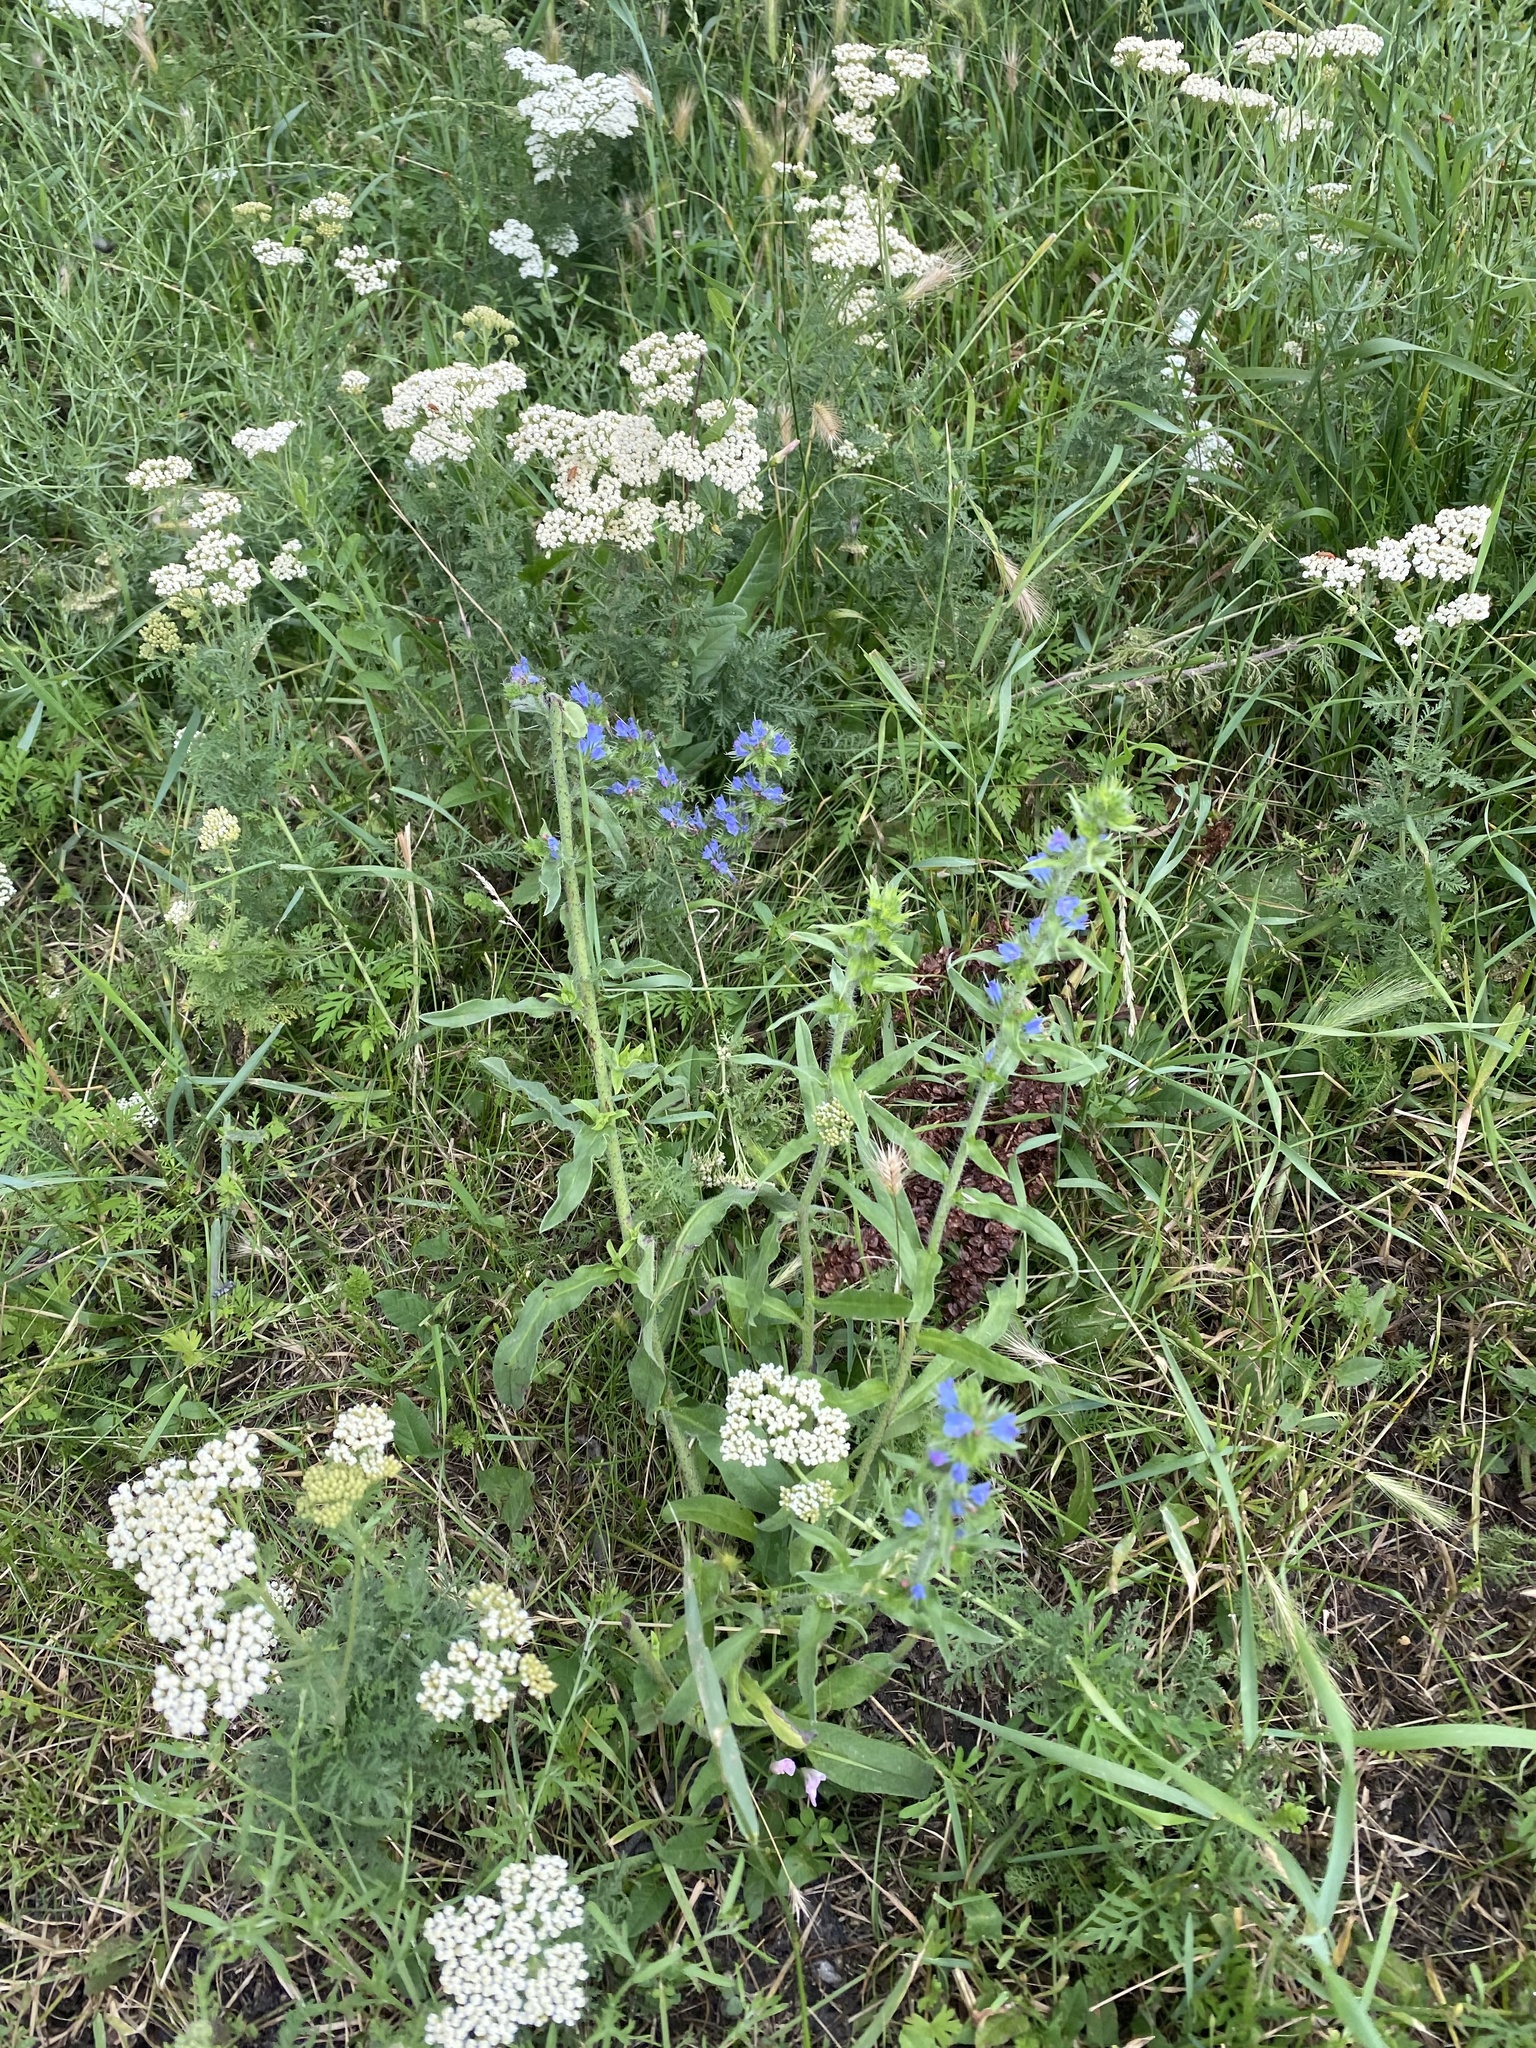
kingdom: Plantae
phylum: Tracheophyta
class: Magnoliopsida
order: Boraginales
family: Boraginaceae
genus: Echium
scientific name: Echium vulgare
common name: Common viper's bugloss
